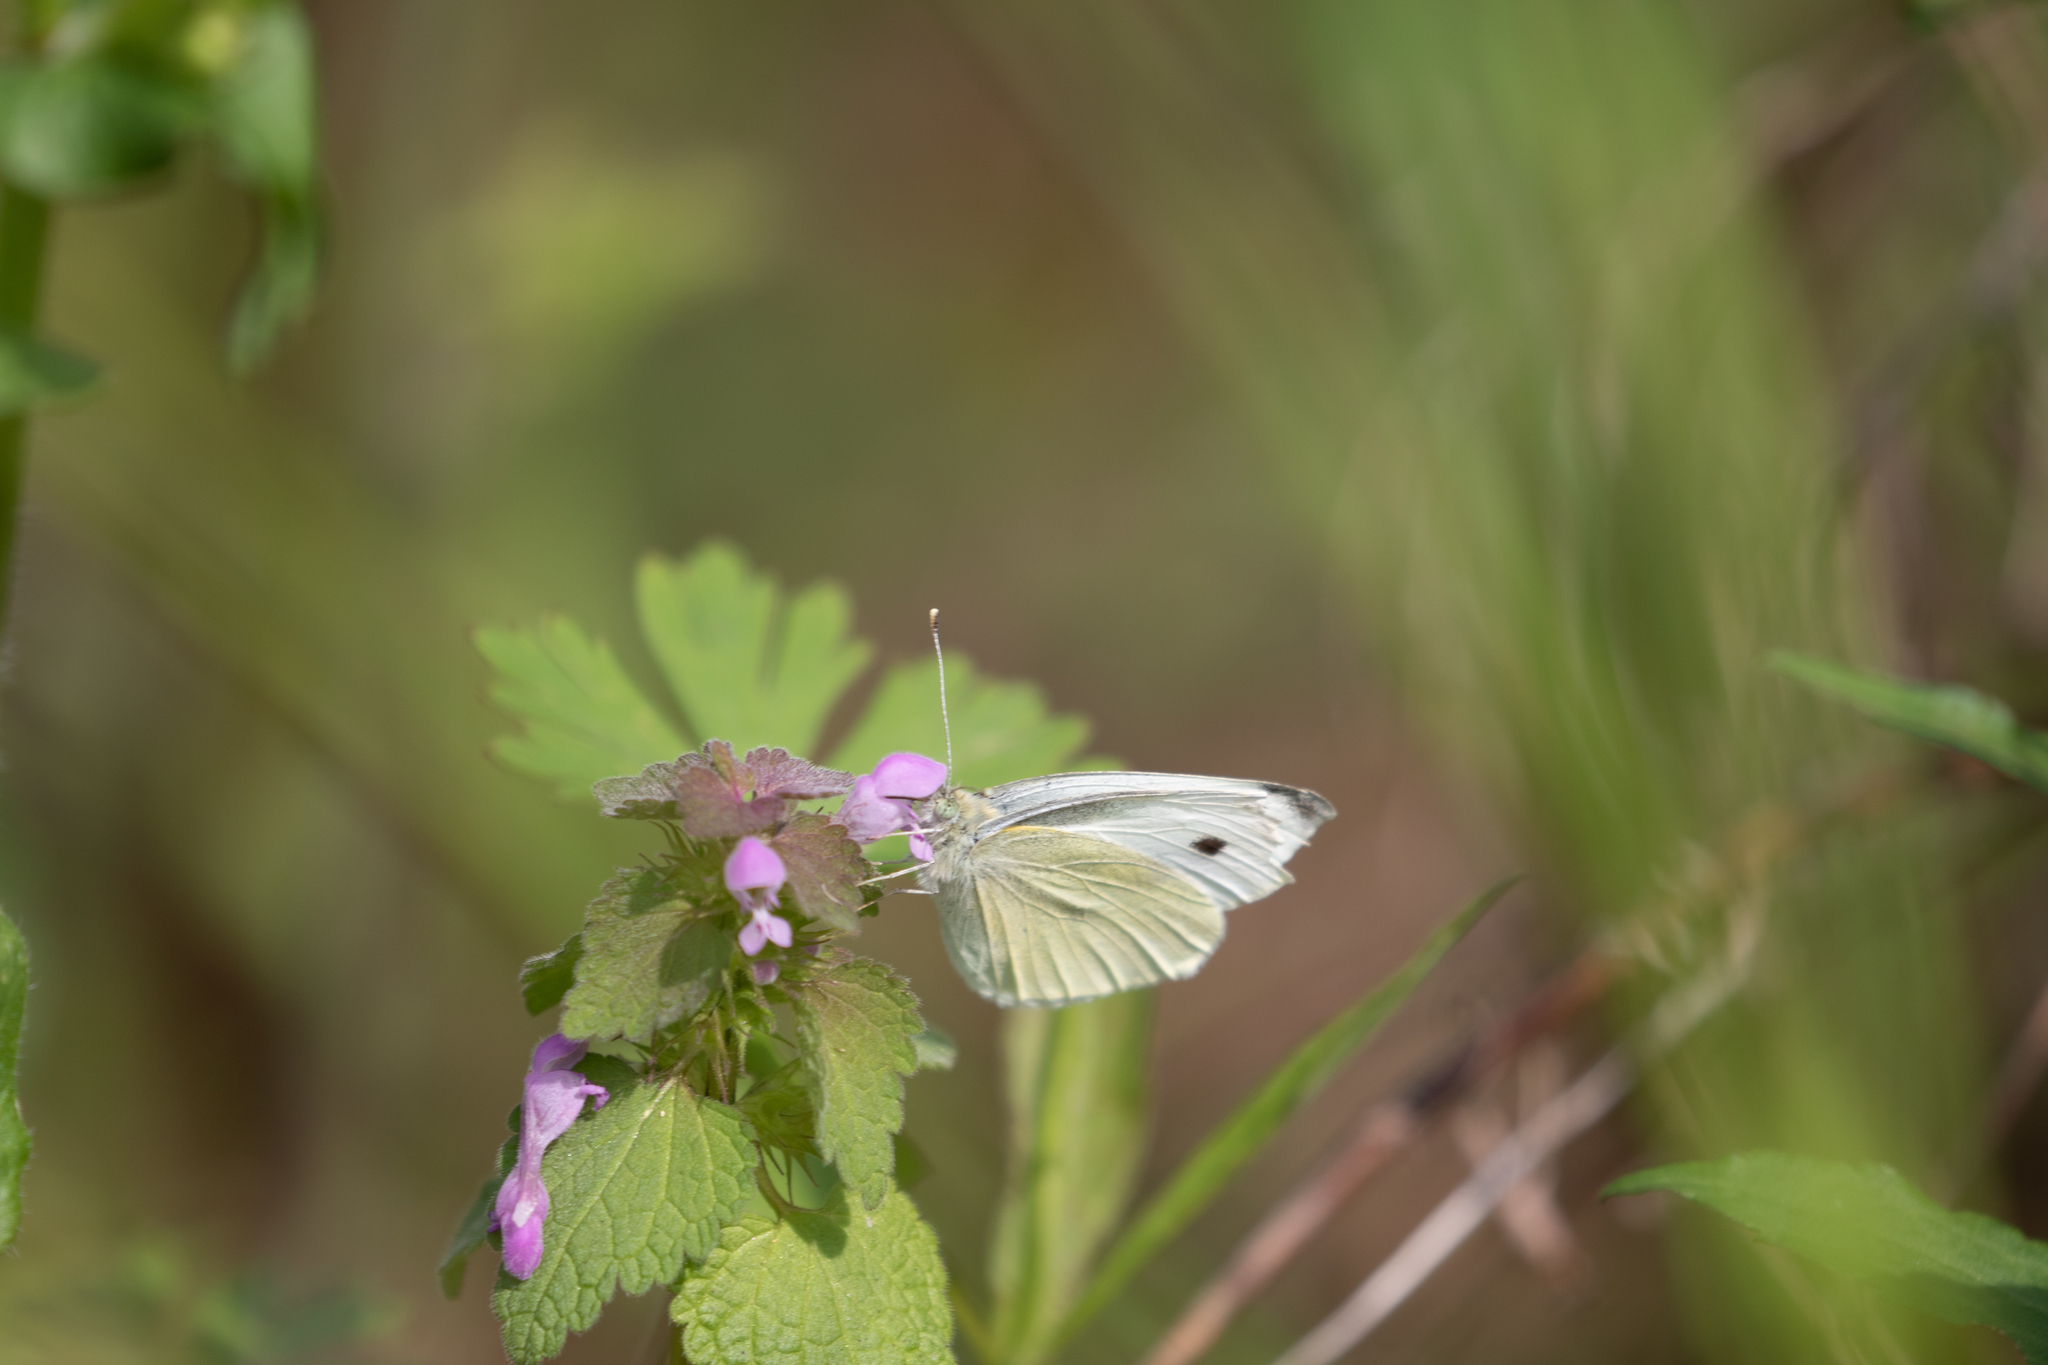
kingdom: Animalia
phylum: Arthropoda
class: Insecta
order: Lepidoptera
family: Pieridae
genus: Pieris
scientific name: Pieris rapae
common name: Small white
